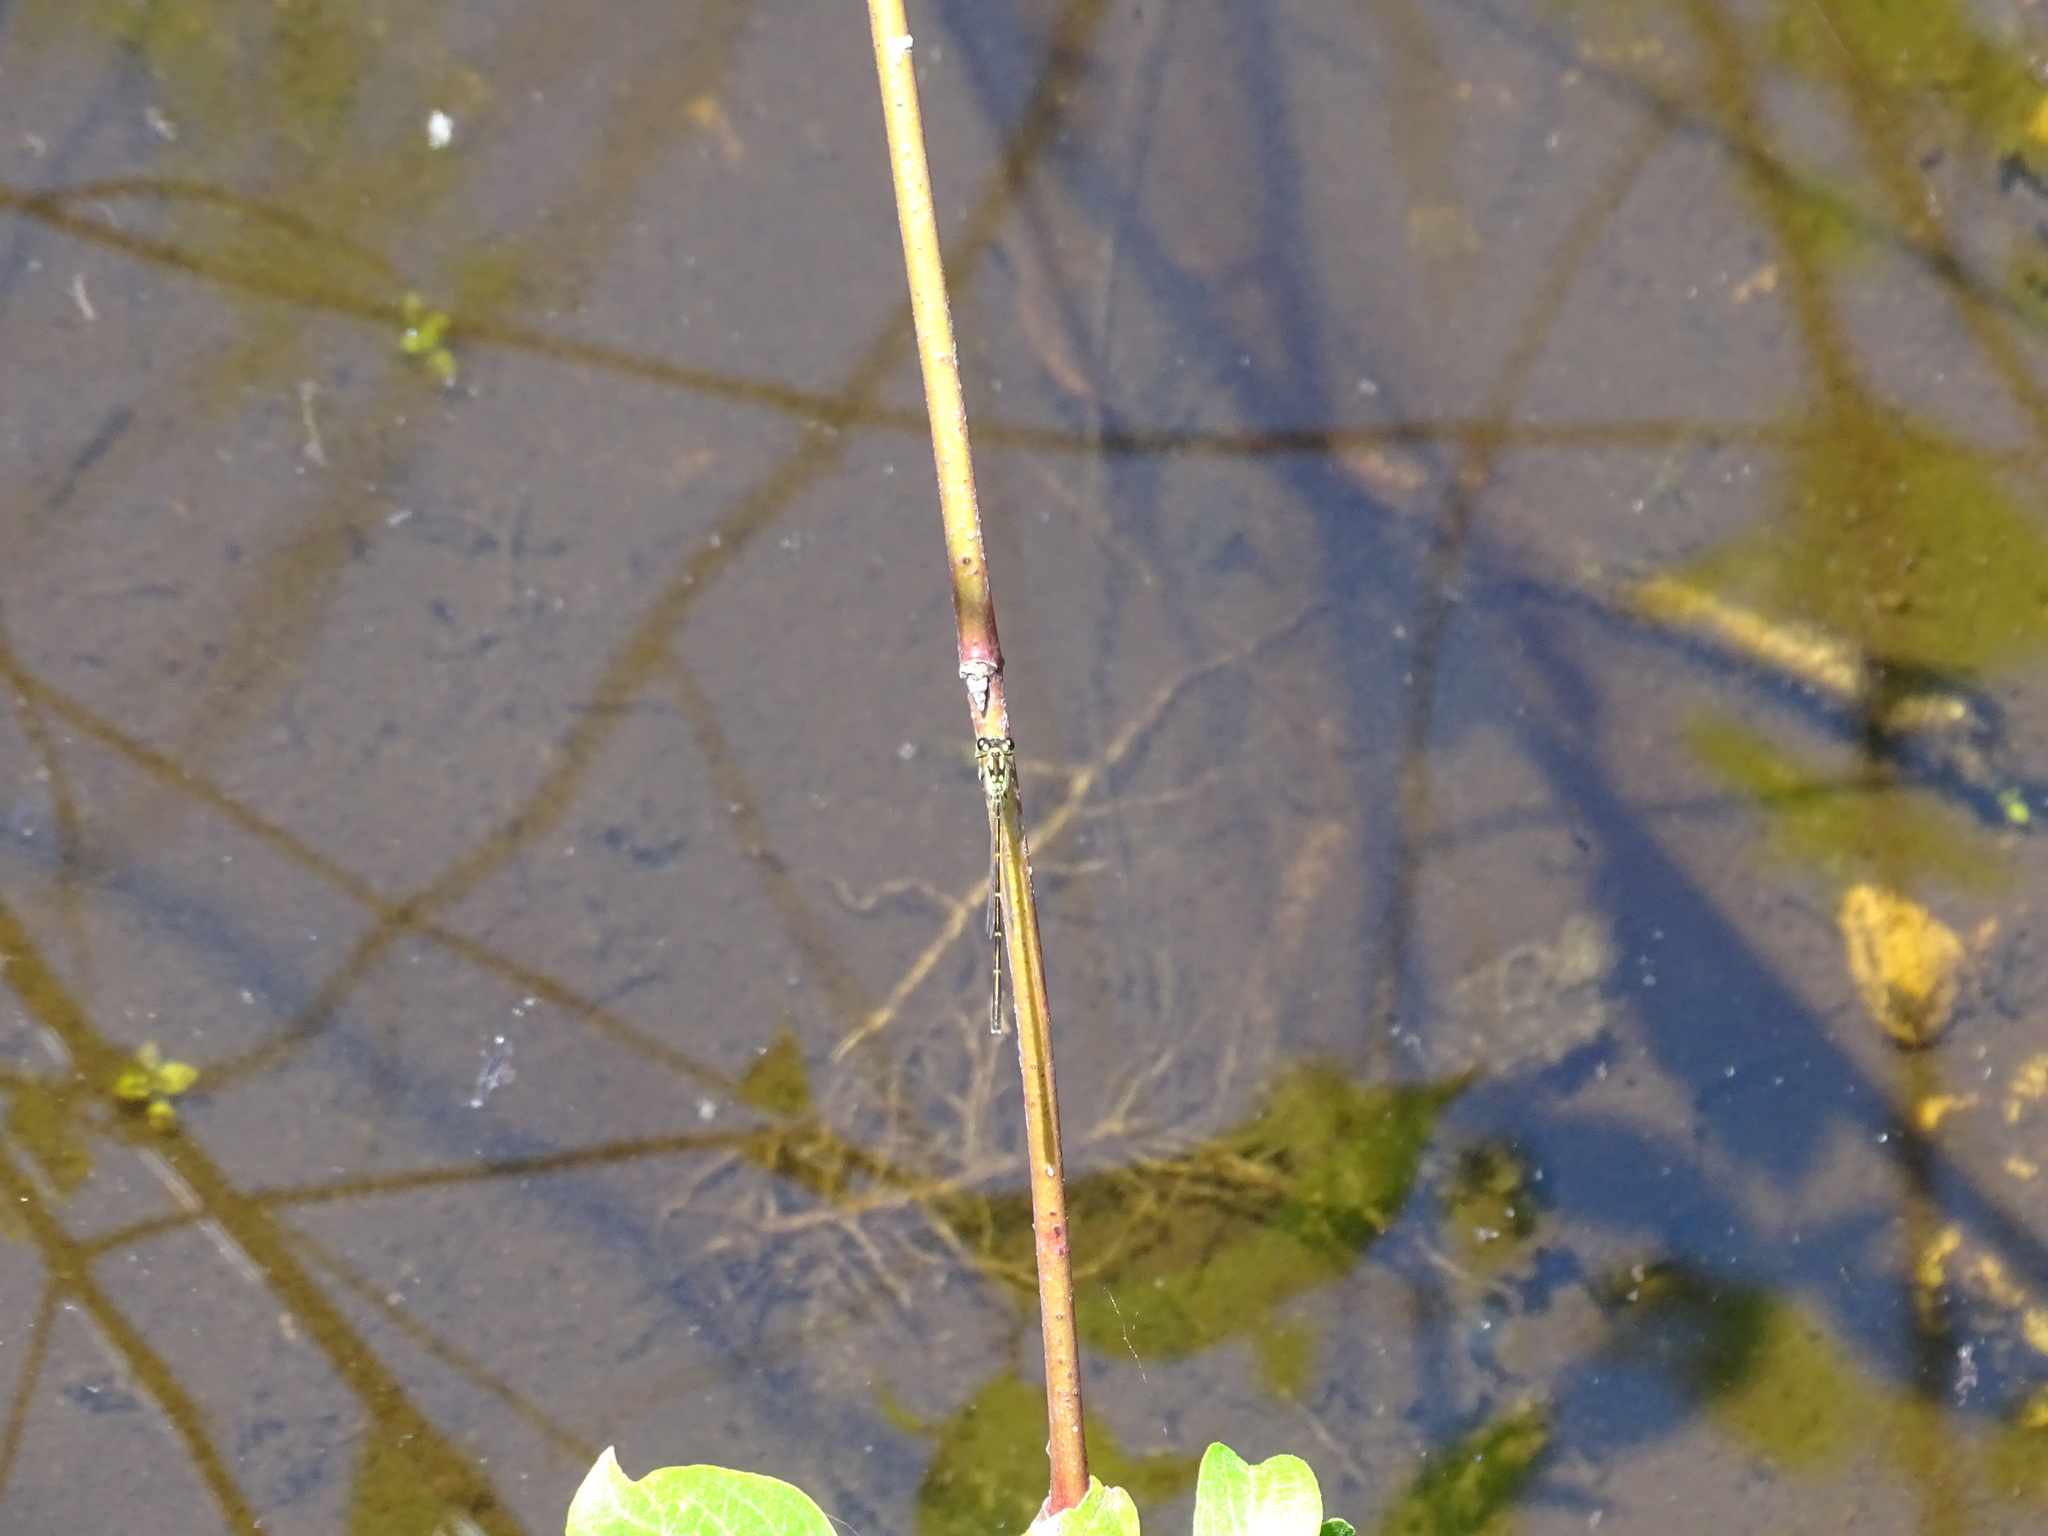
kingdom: Animalia
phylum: Arthropoda
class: Insecta
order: Odonata
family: Coenagrionidae
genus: Ischnura
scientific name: Ischnura posita
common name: Fragile forktail
